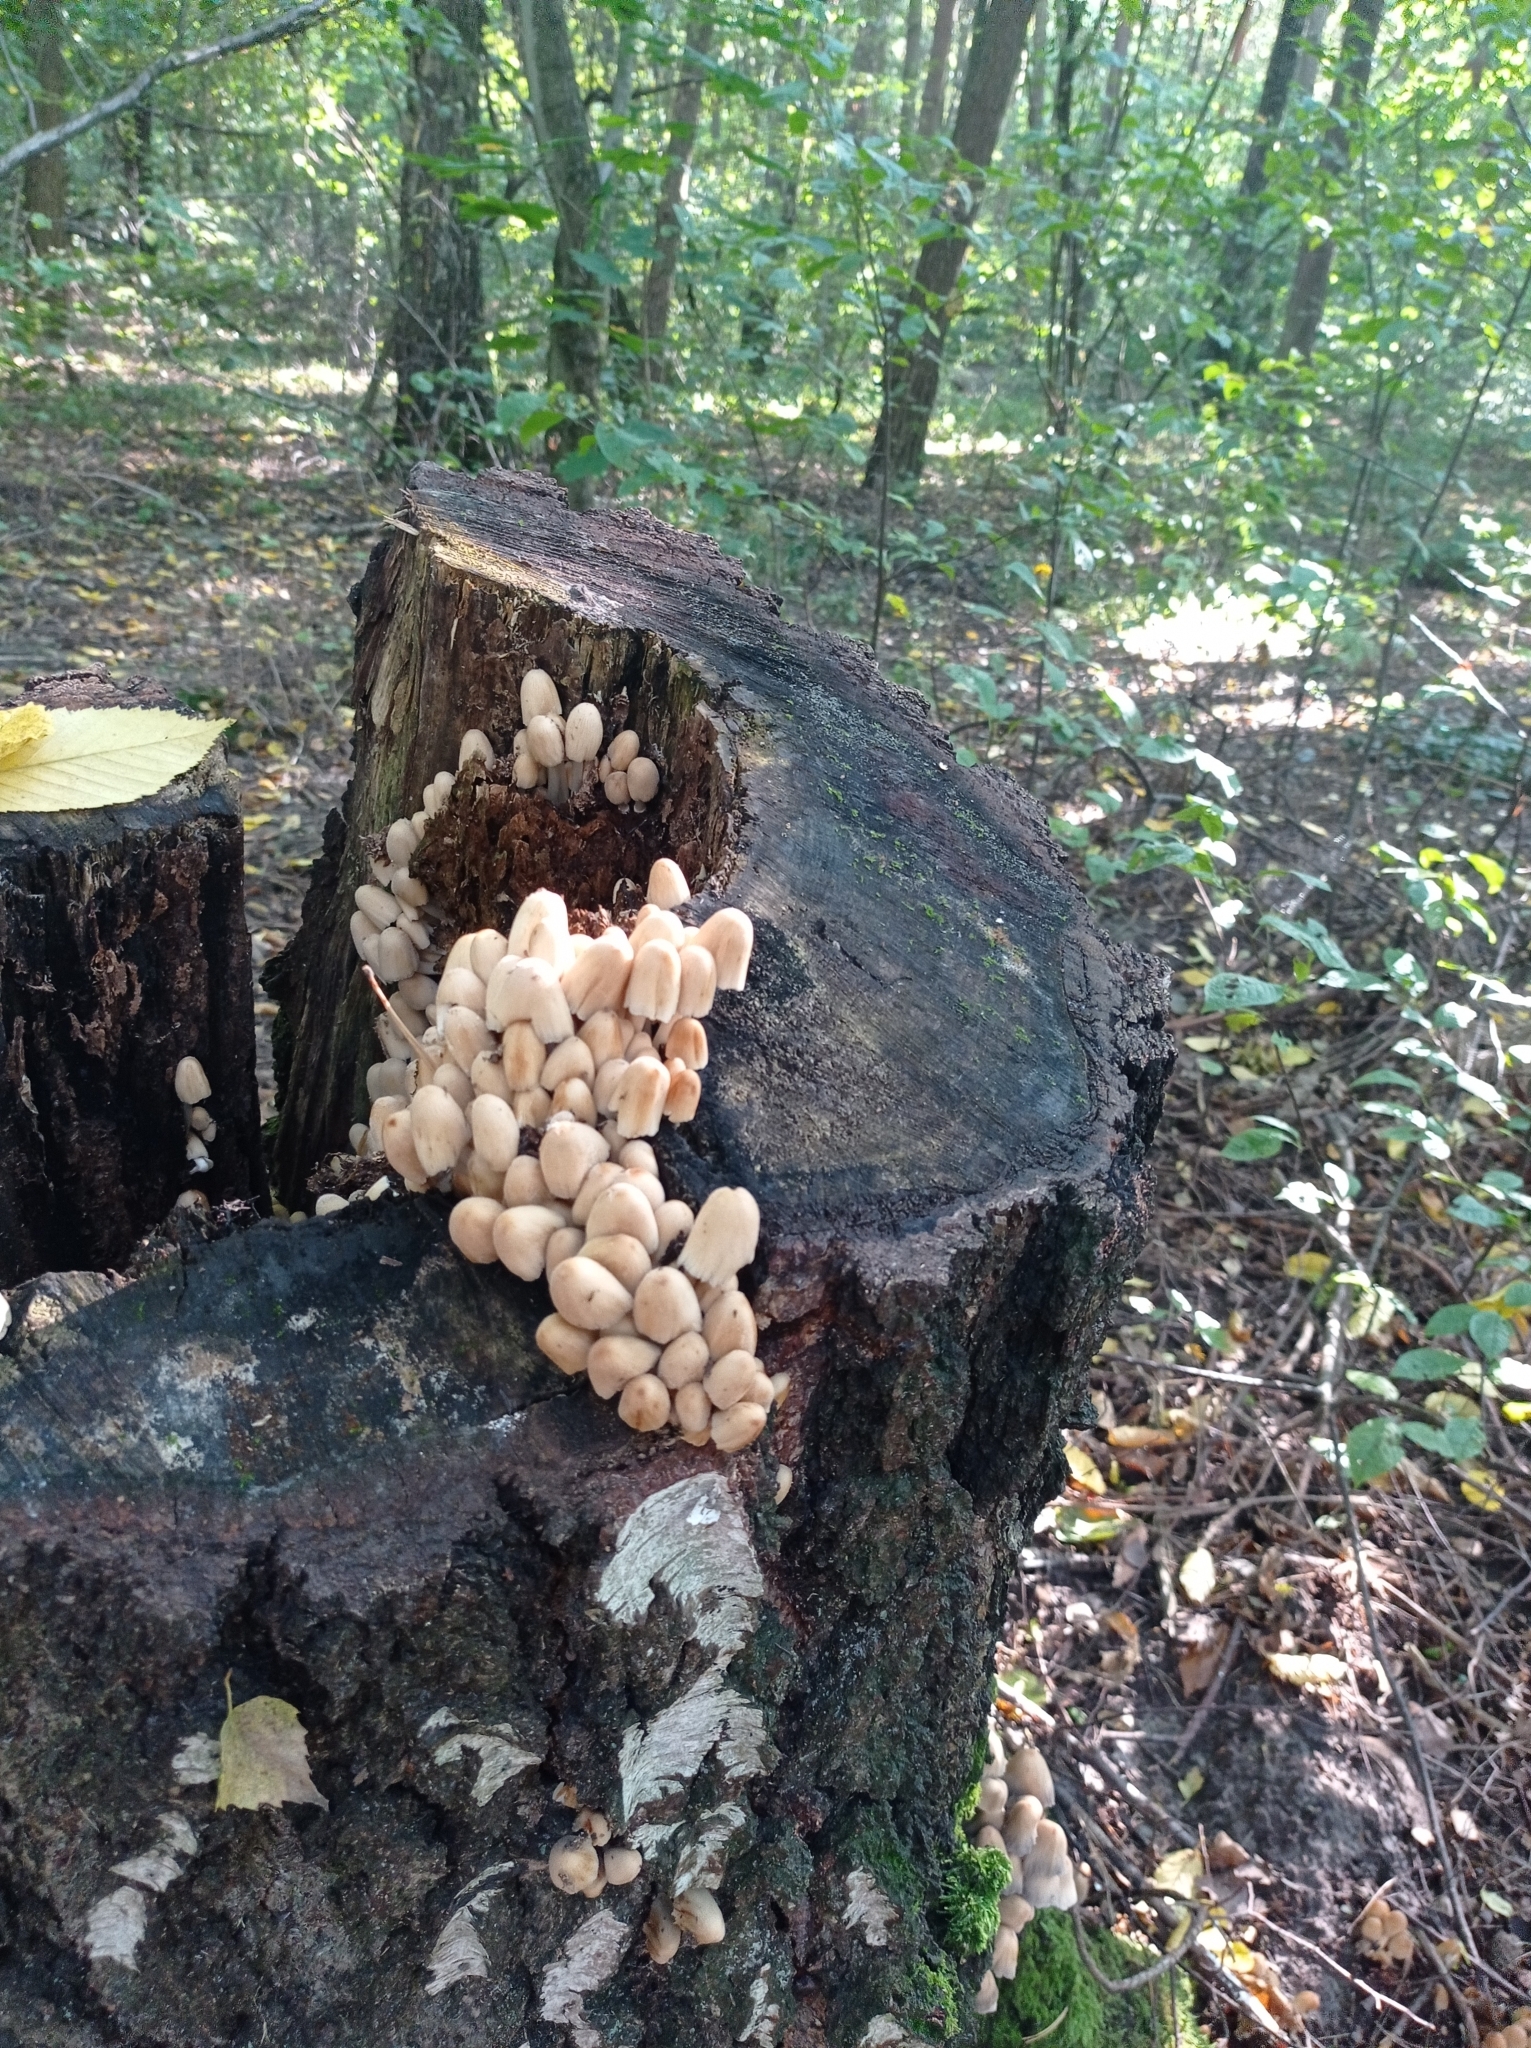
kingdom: Fungi
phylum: Basidiomycota
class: Agaricomycetes
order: Agaricales
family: Psathyrellaceae
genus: Coprinellus
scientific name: Coprinellus disseminatus
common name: Fairies' bonnets
